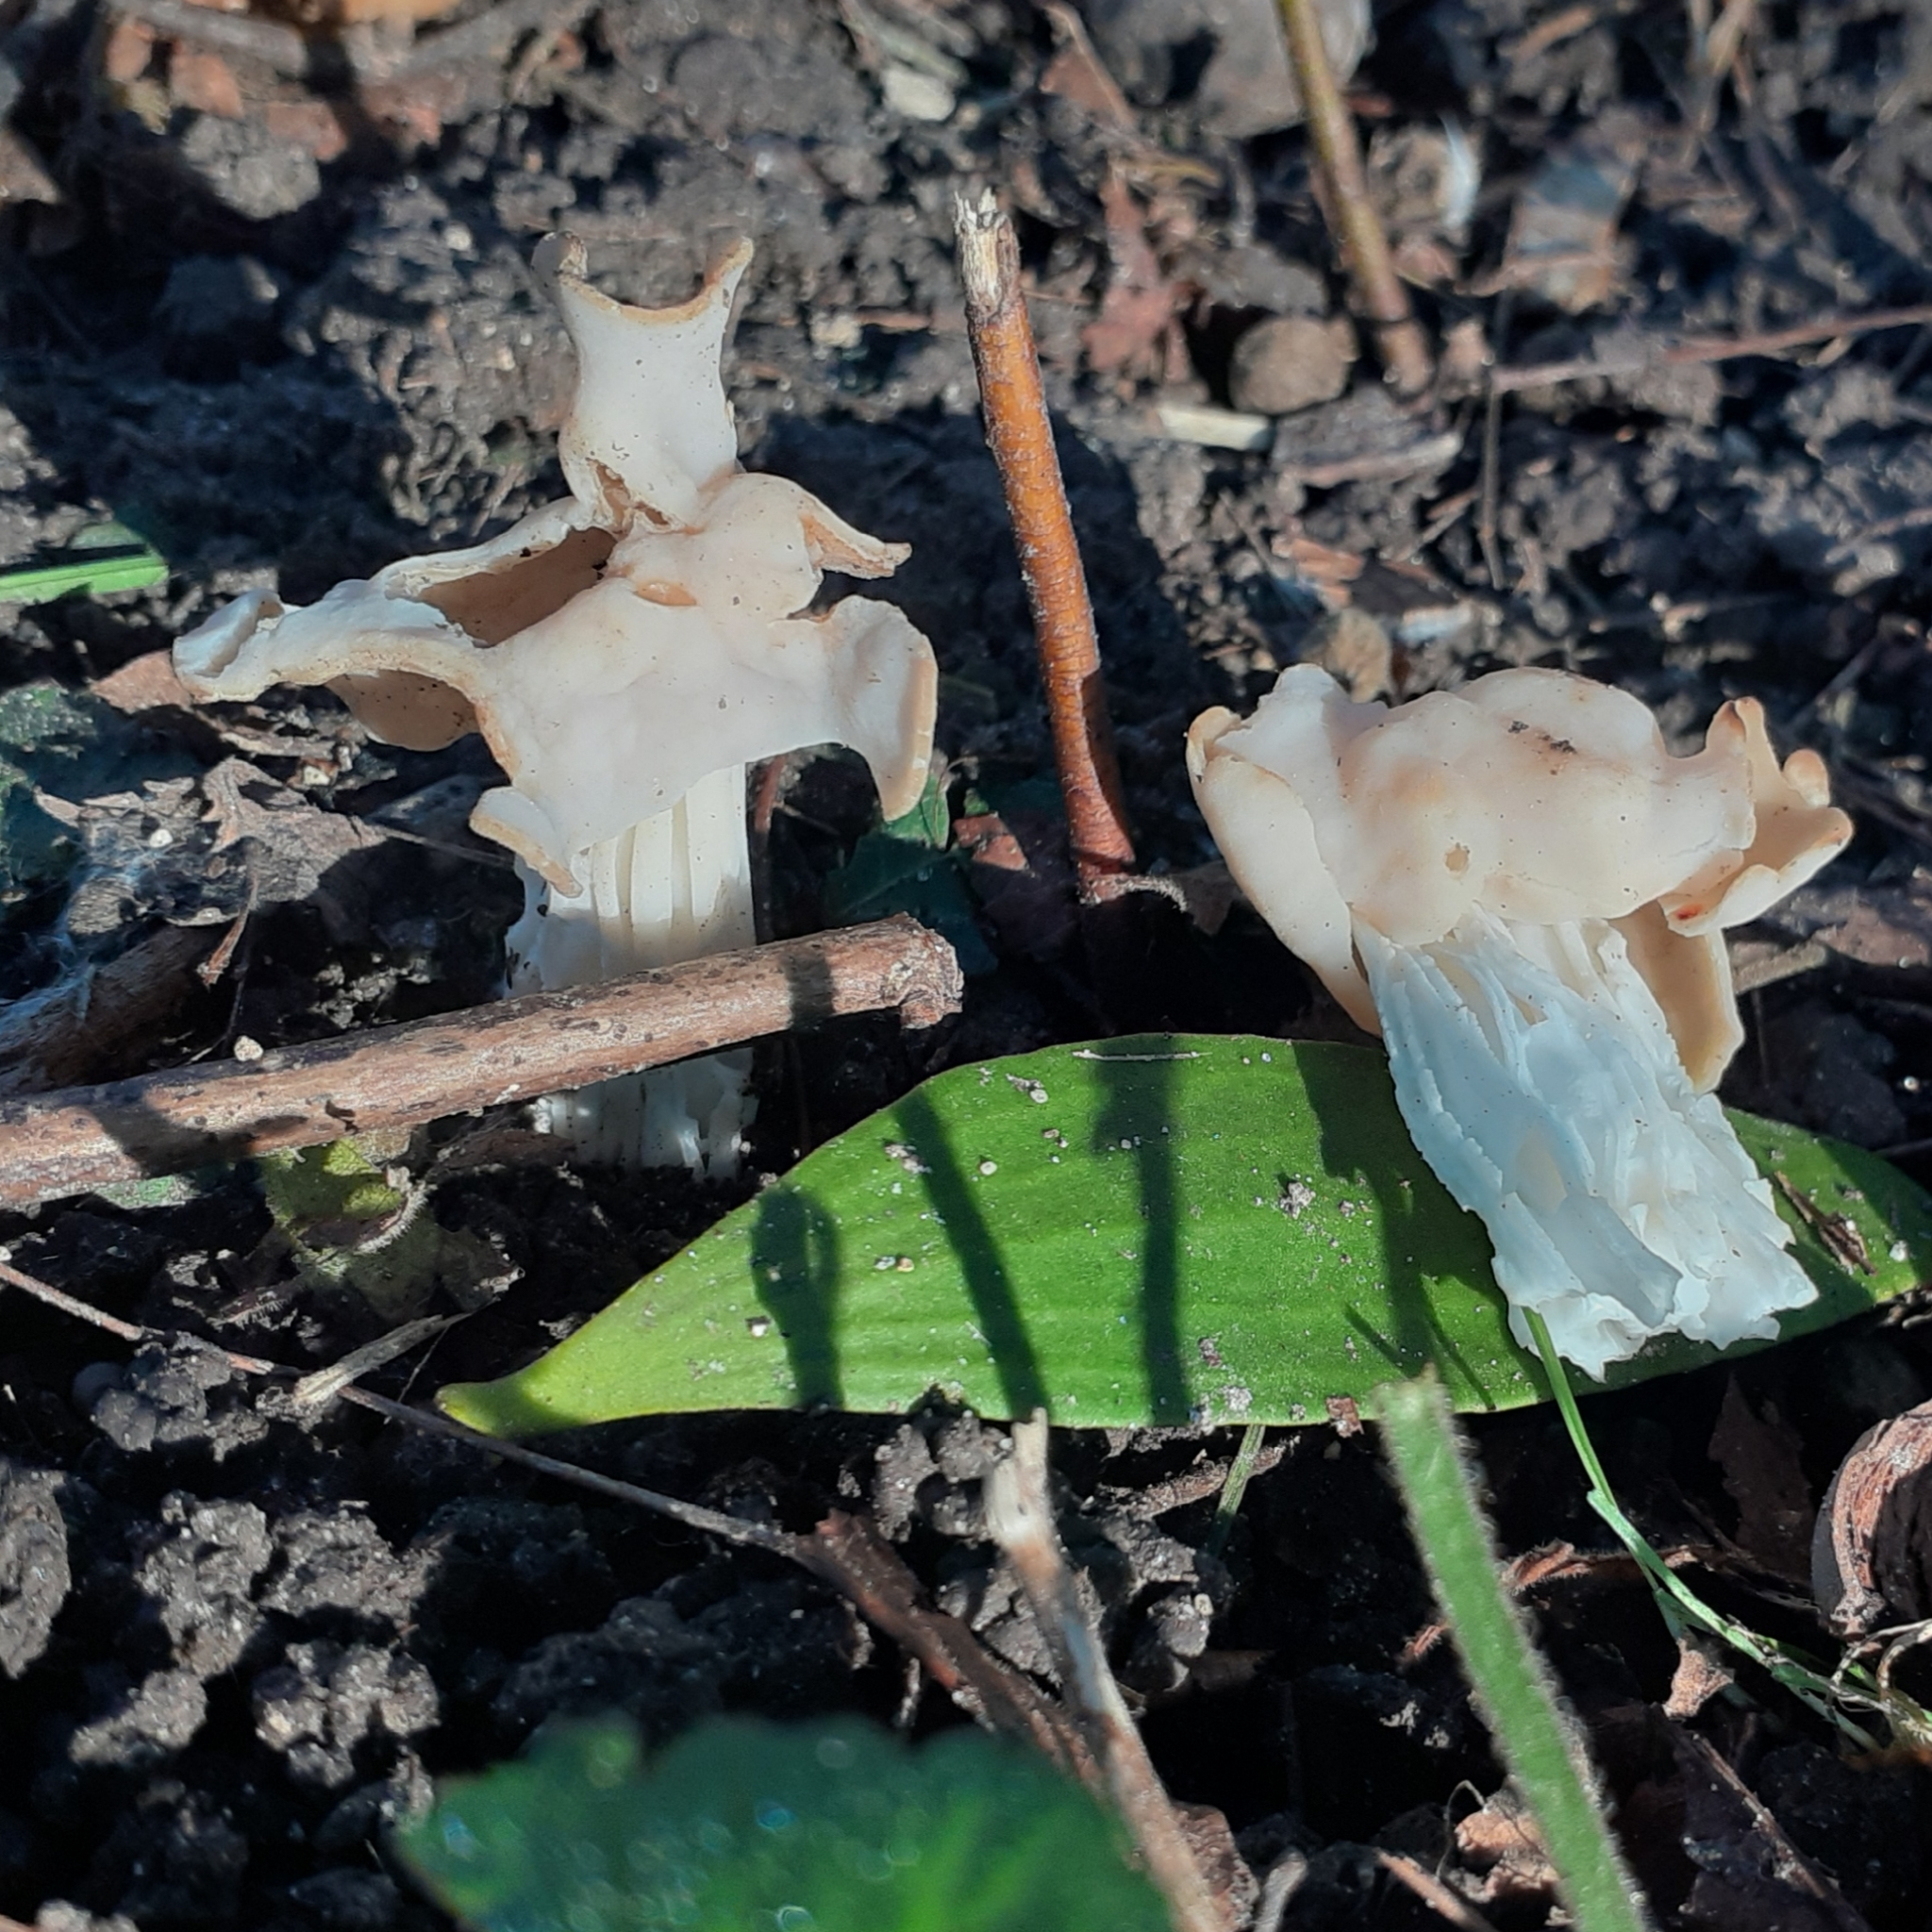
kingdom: Fungi
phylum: Ascomycota
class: Pezizomycetes
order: Pezizales
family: Helvellaceae
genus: Helvella
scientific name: Helvella crispa
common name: White saddle
